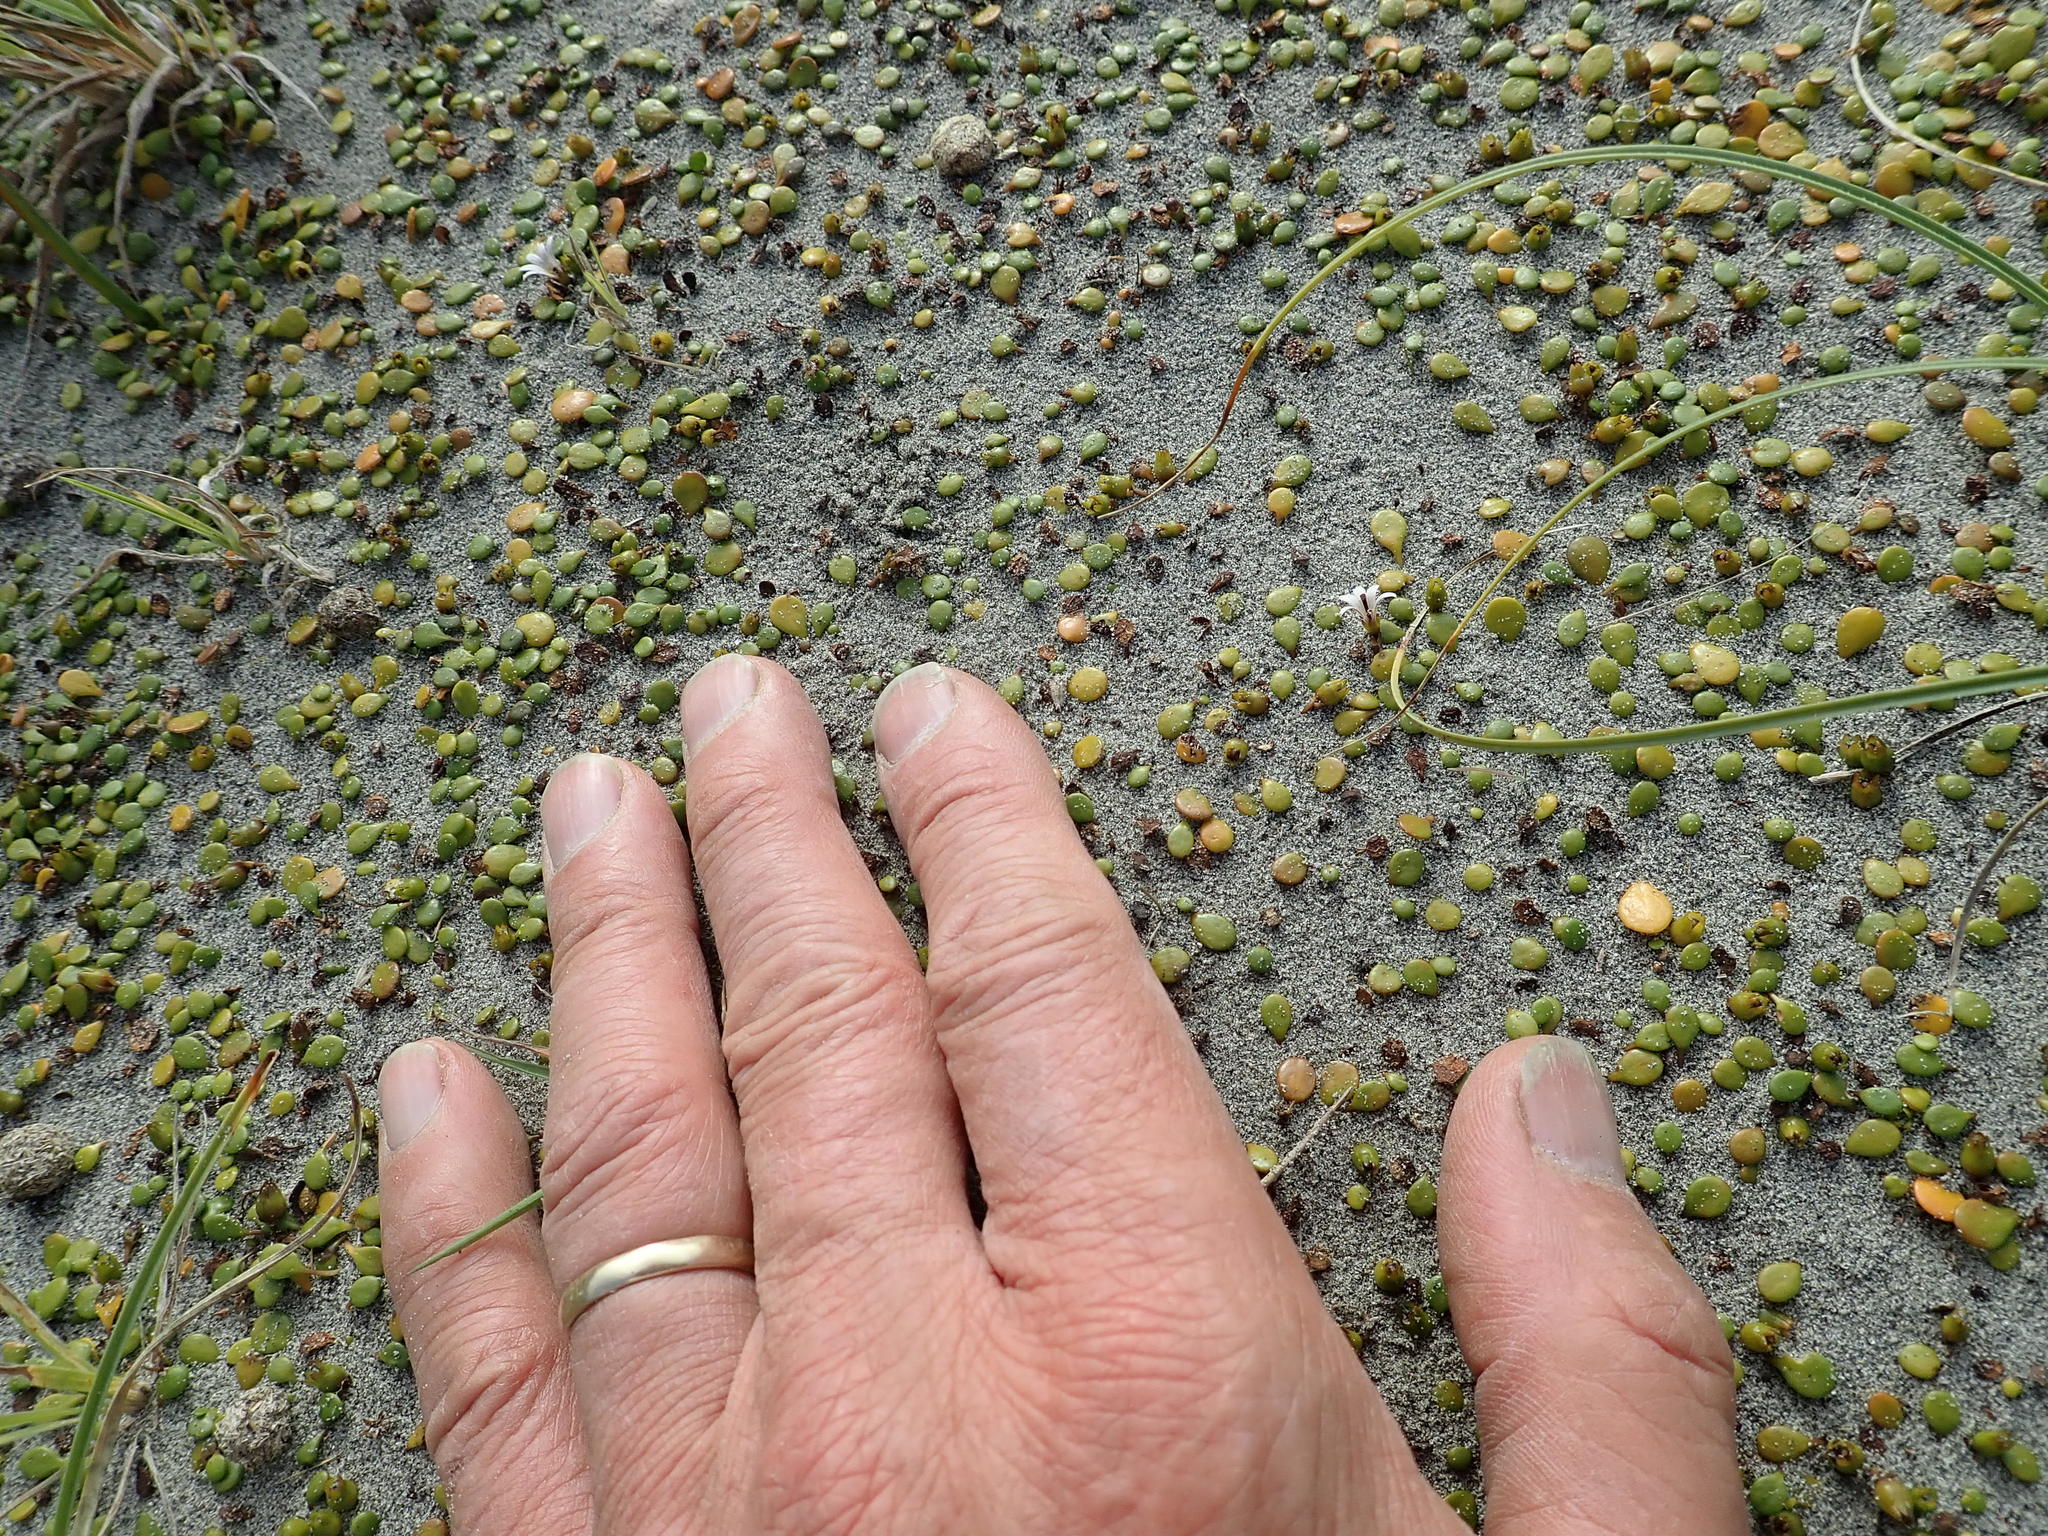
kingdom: Plantae
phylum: Tracheophyta
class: Magnoliopsida
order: Asterales
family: Goodeniaceae
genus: Goodenia
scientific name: Goodenia heenanii
